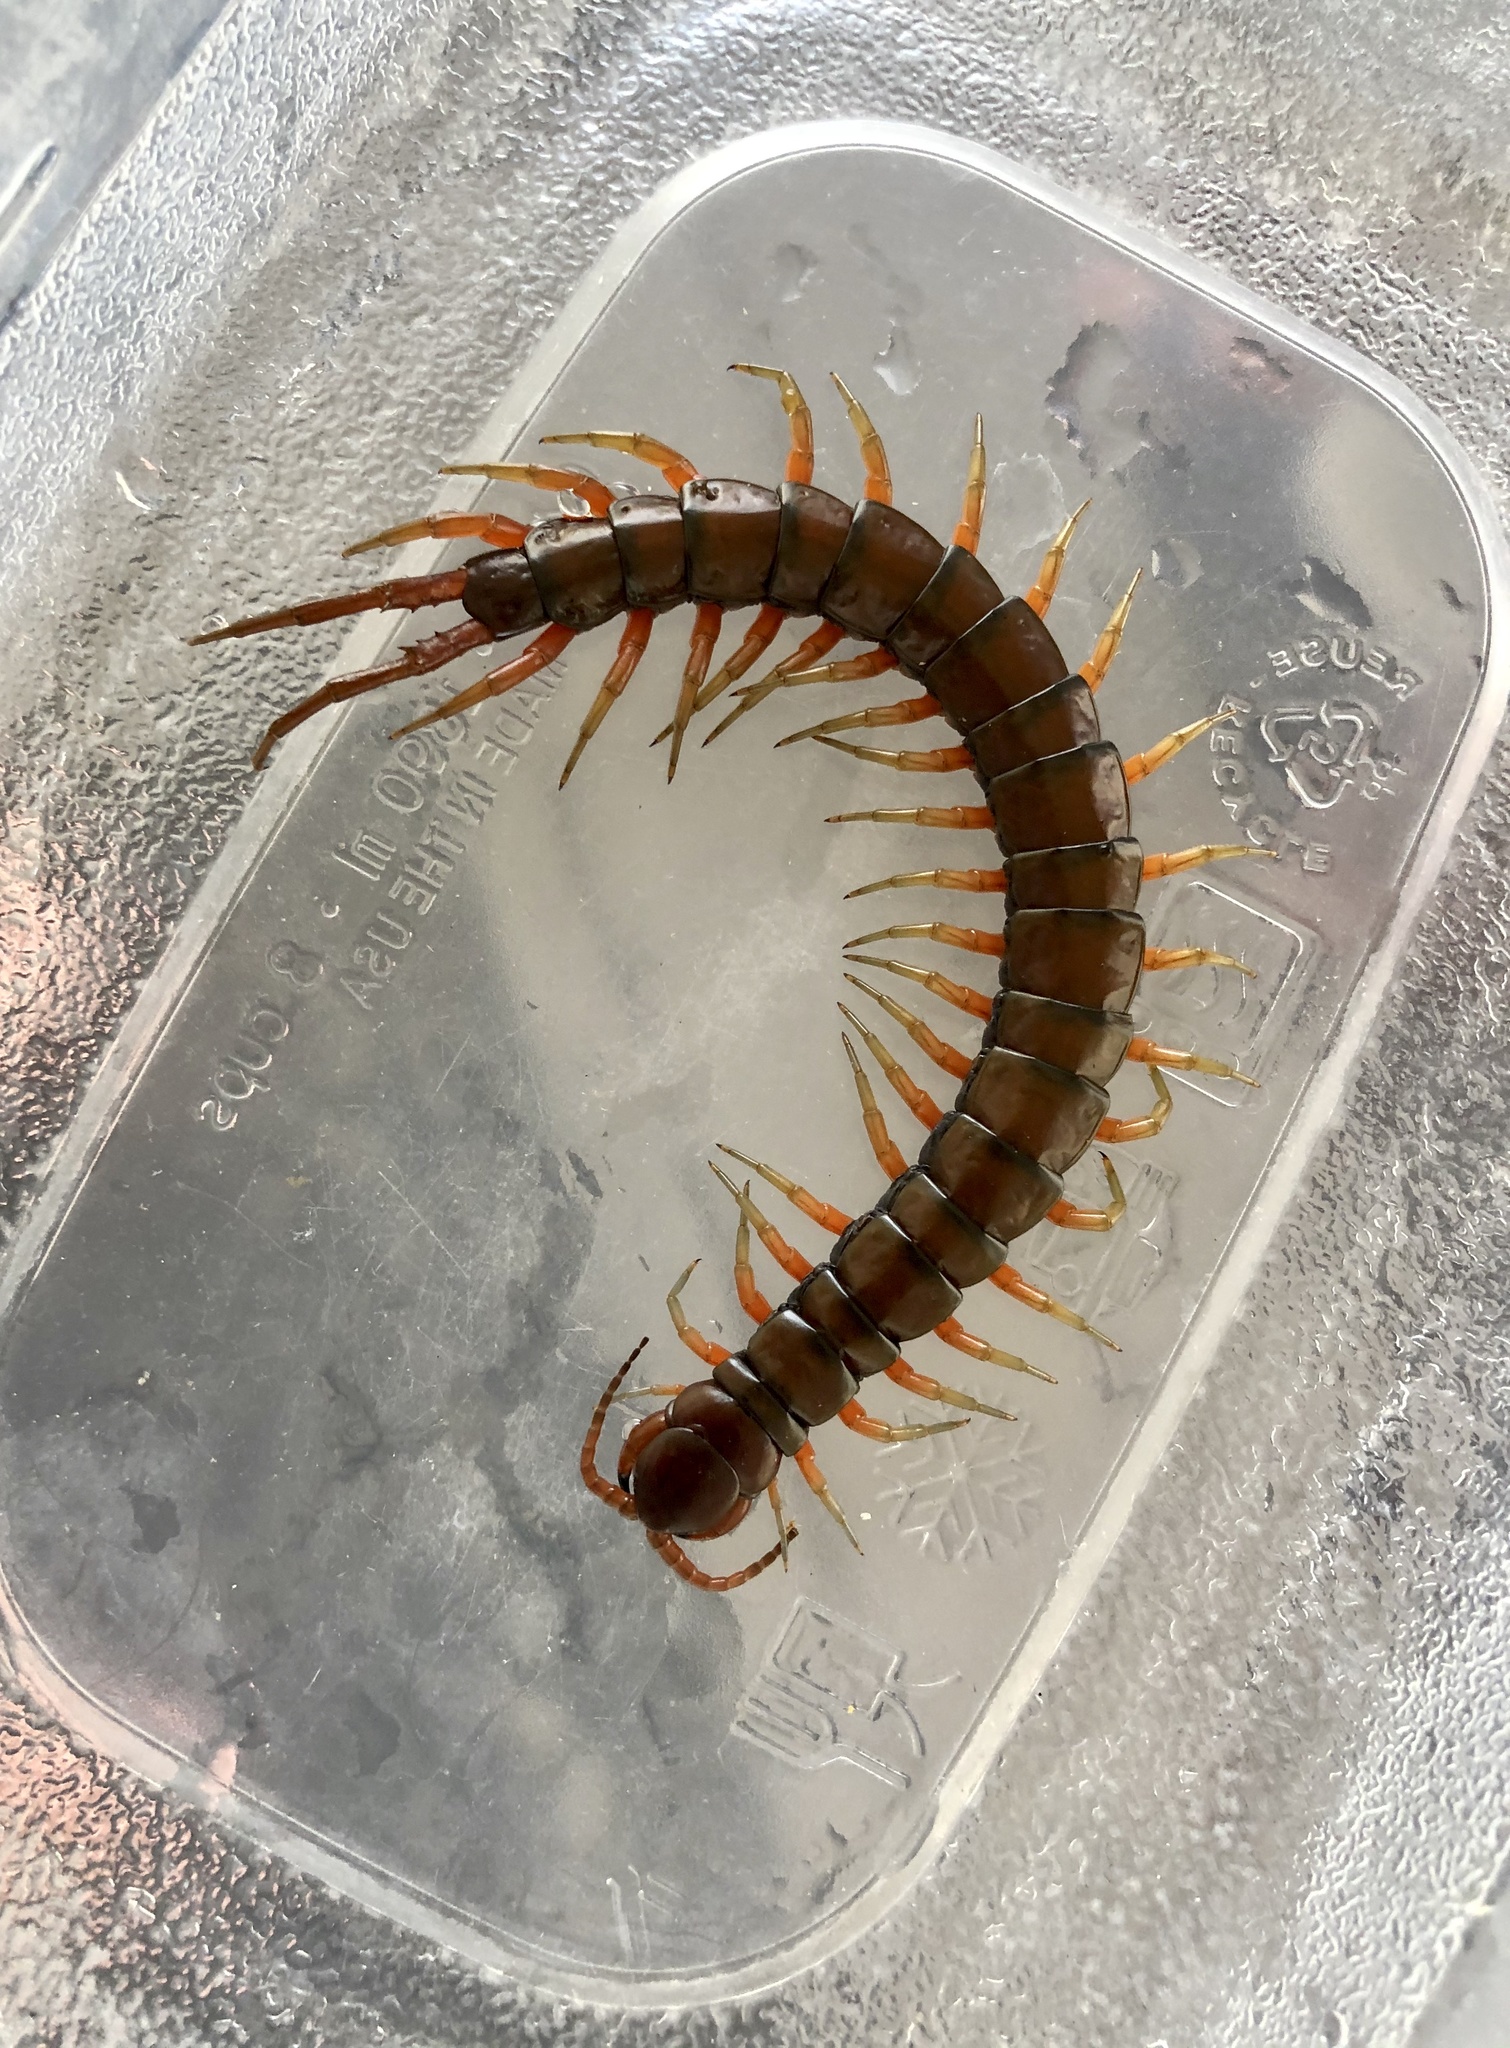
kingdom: Animalia
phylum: Arthropoda
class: Chilopoda
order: Scolopendromorpha
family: Scolopendridae
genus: Scolopendra
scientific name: Scolopendra subspinipes
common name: Centipede
